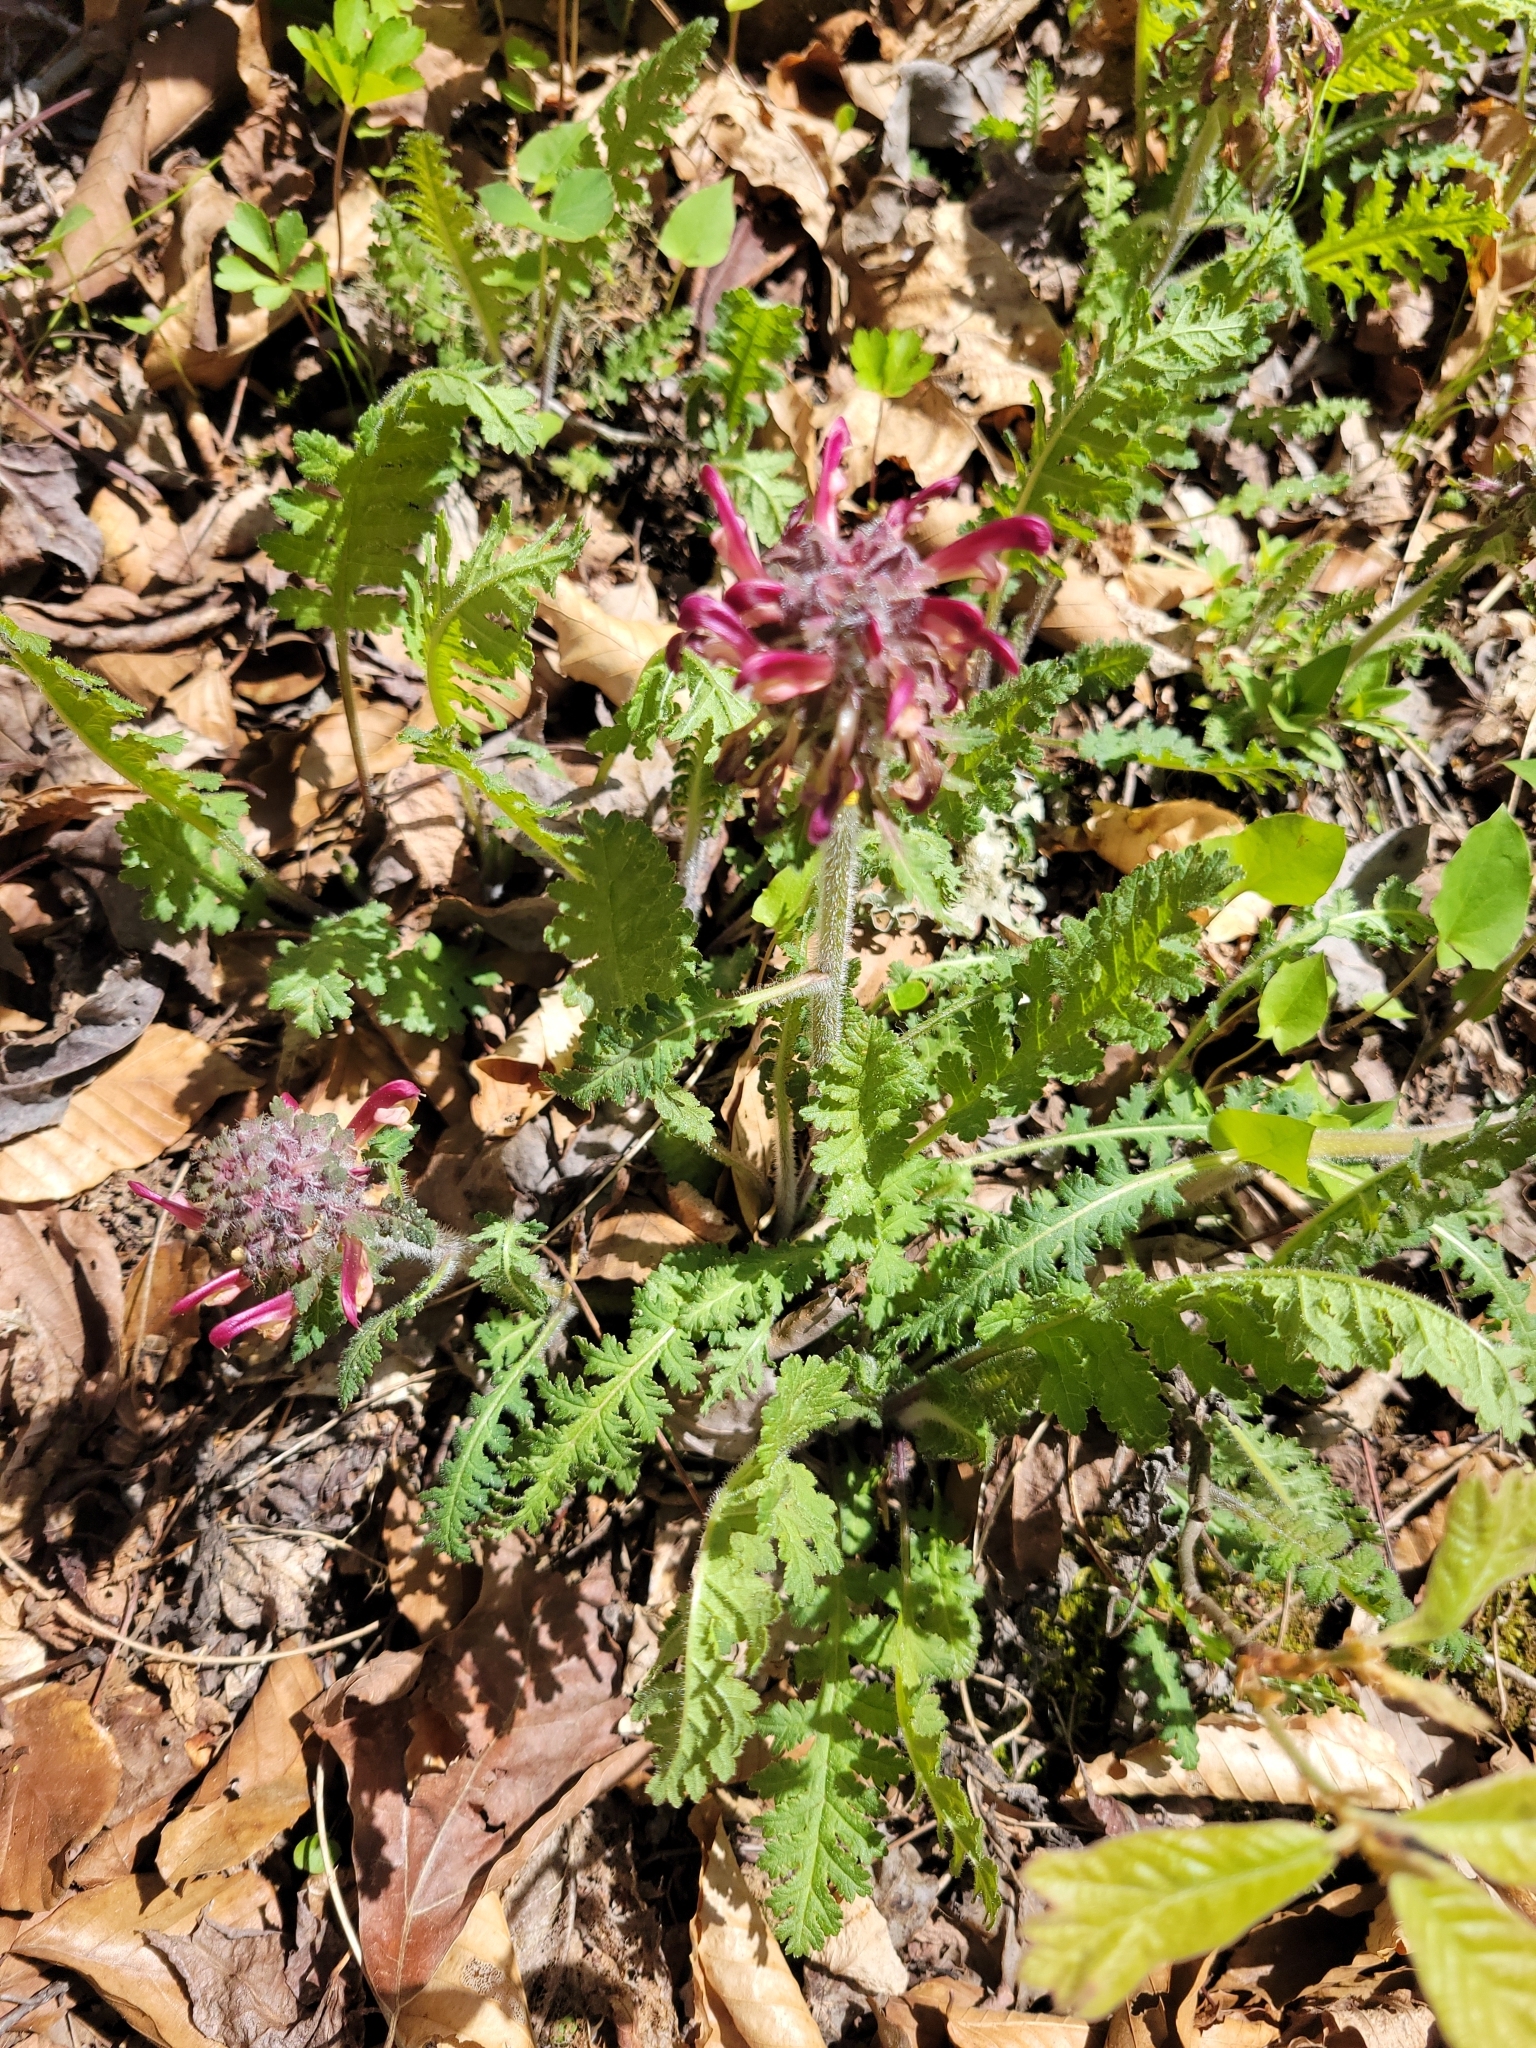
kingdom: Plantae
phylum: Tracheophyta
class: Magnoliopsida
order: Lamiales
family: Orobanchaceae
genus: Pedicularis
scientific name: Pedicularis canadensis
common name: Early lousewort
